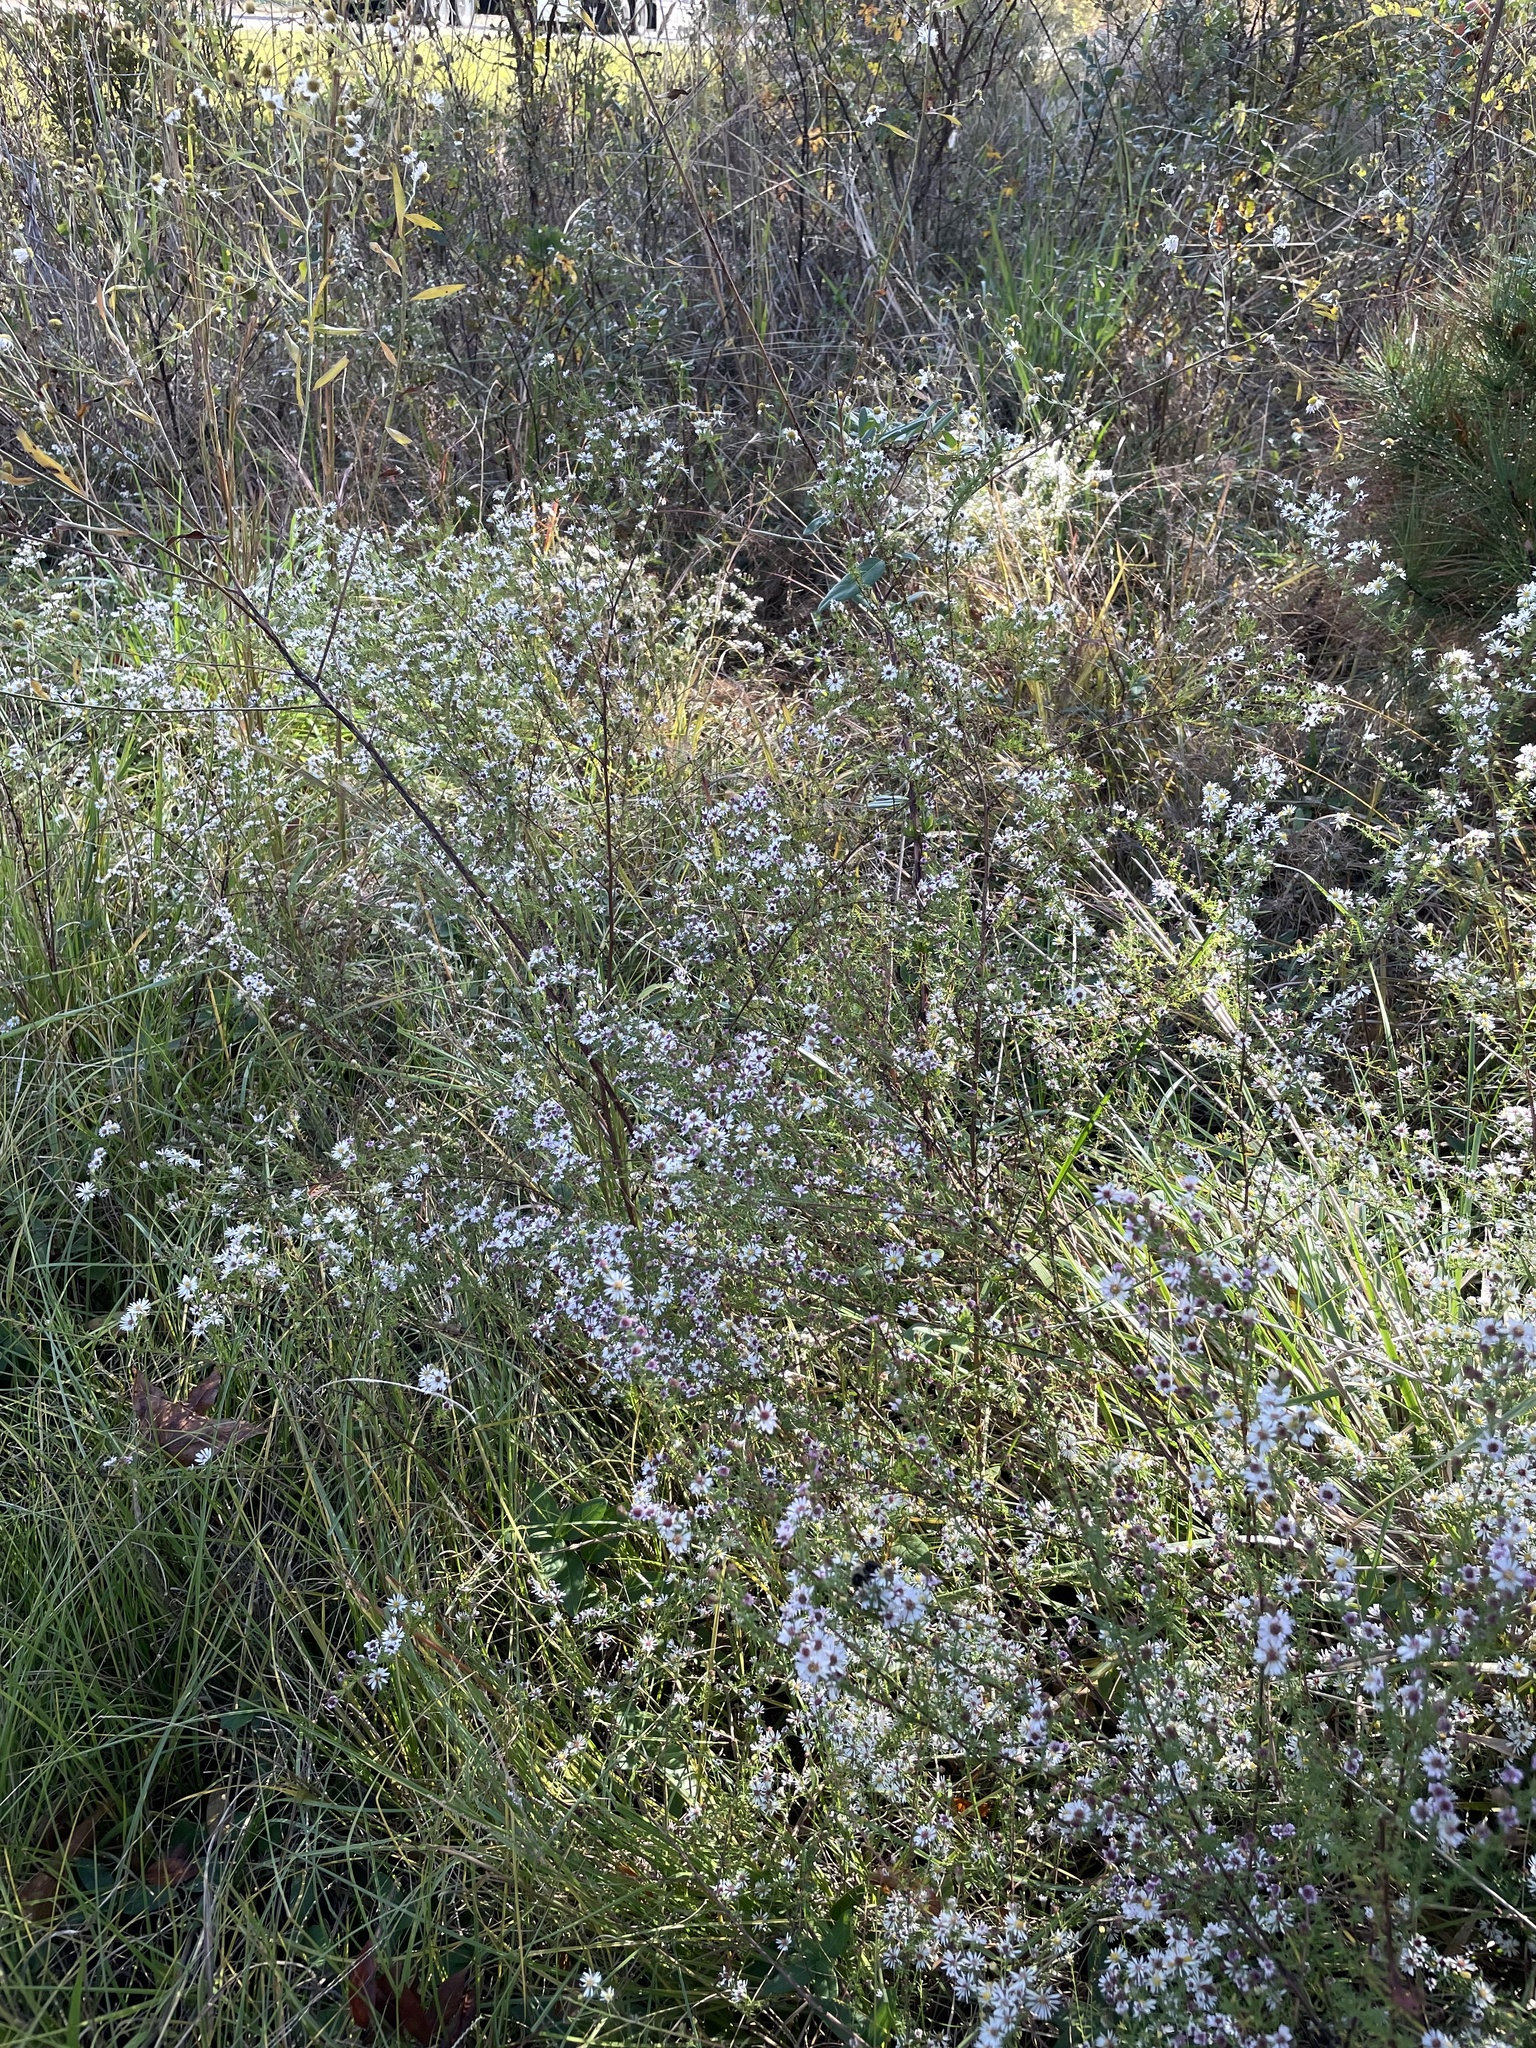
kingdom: Plantae
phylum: Tracheophyta
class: Magnoliopsida
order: Asterales
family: Asteraceae
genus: Symphyotrichum
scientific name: Symphyotrichum racemosum
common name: Small white aster
